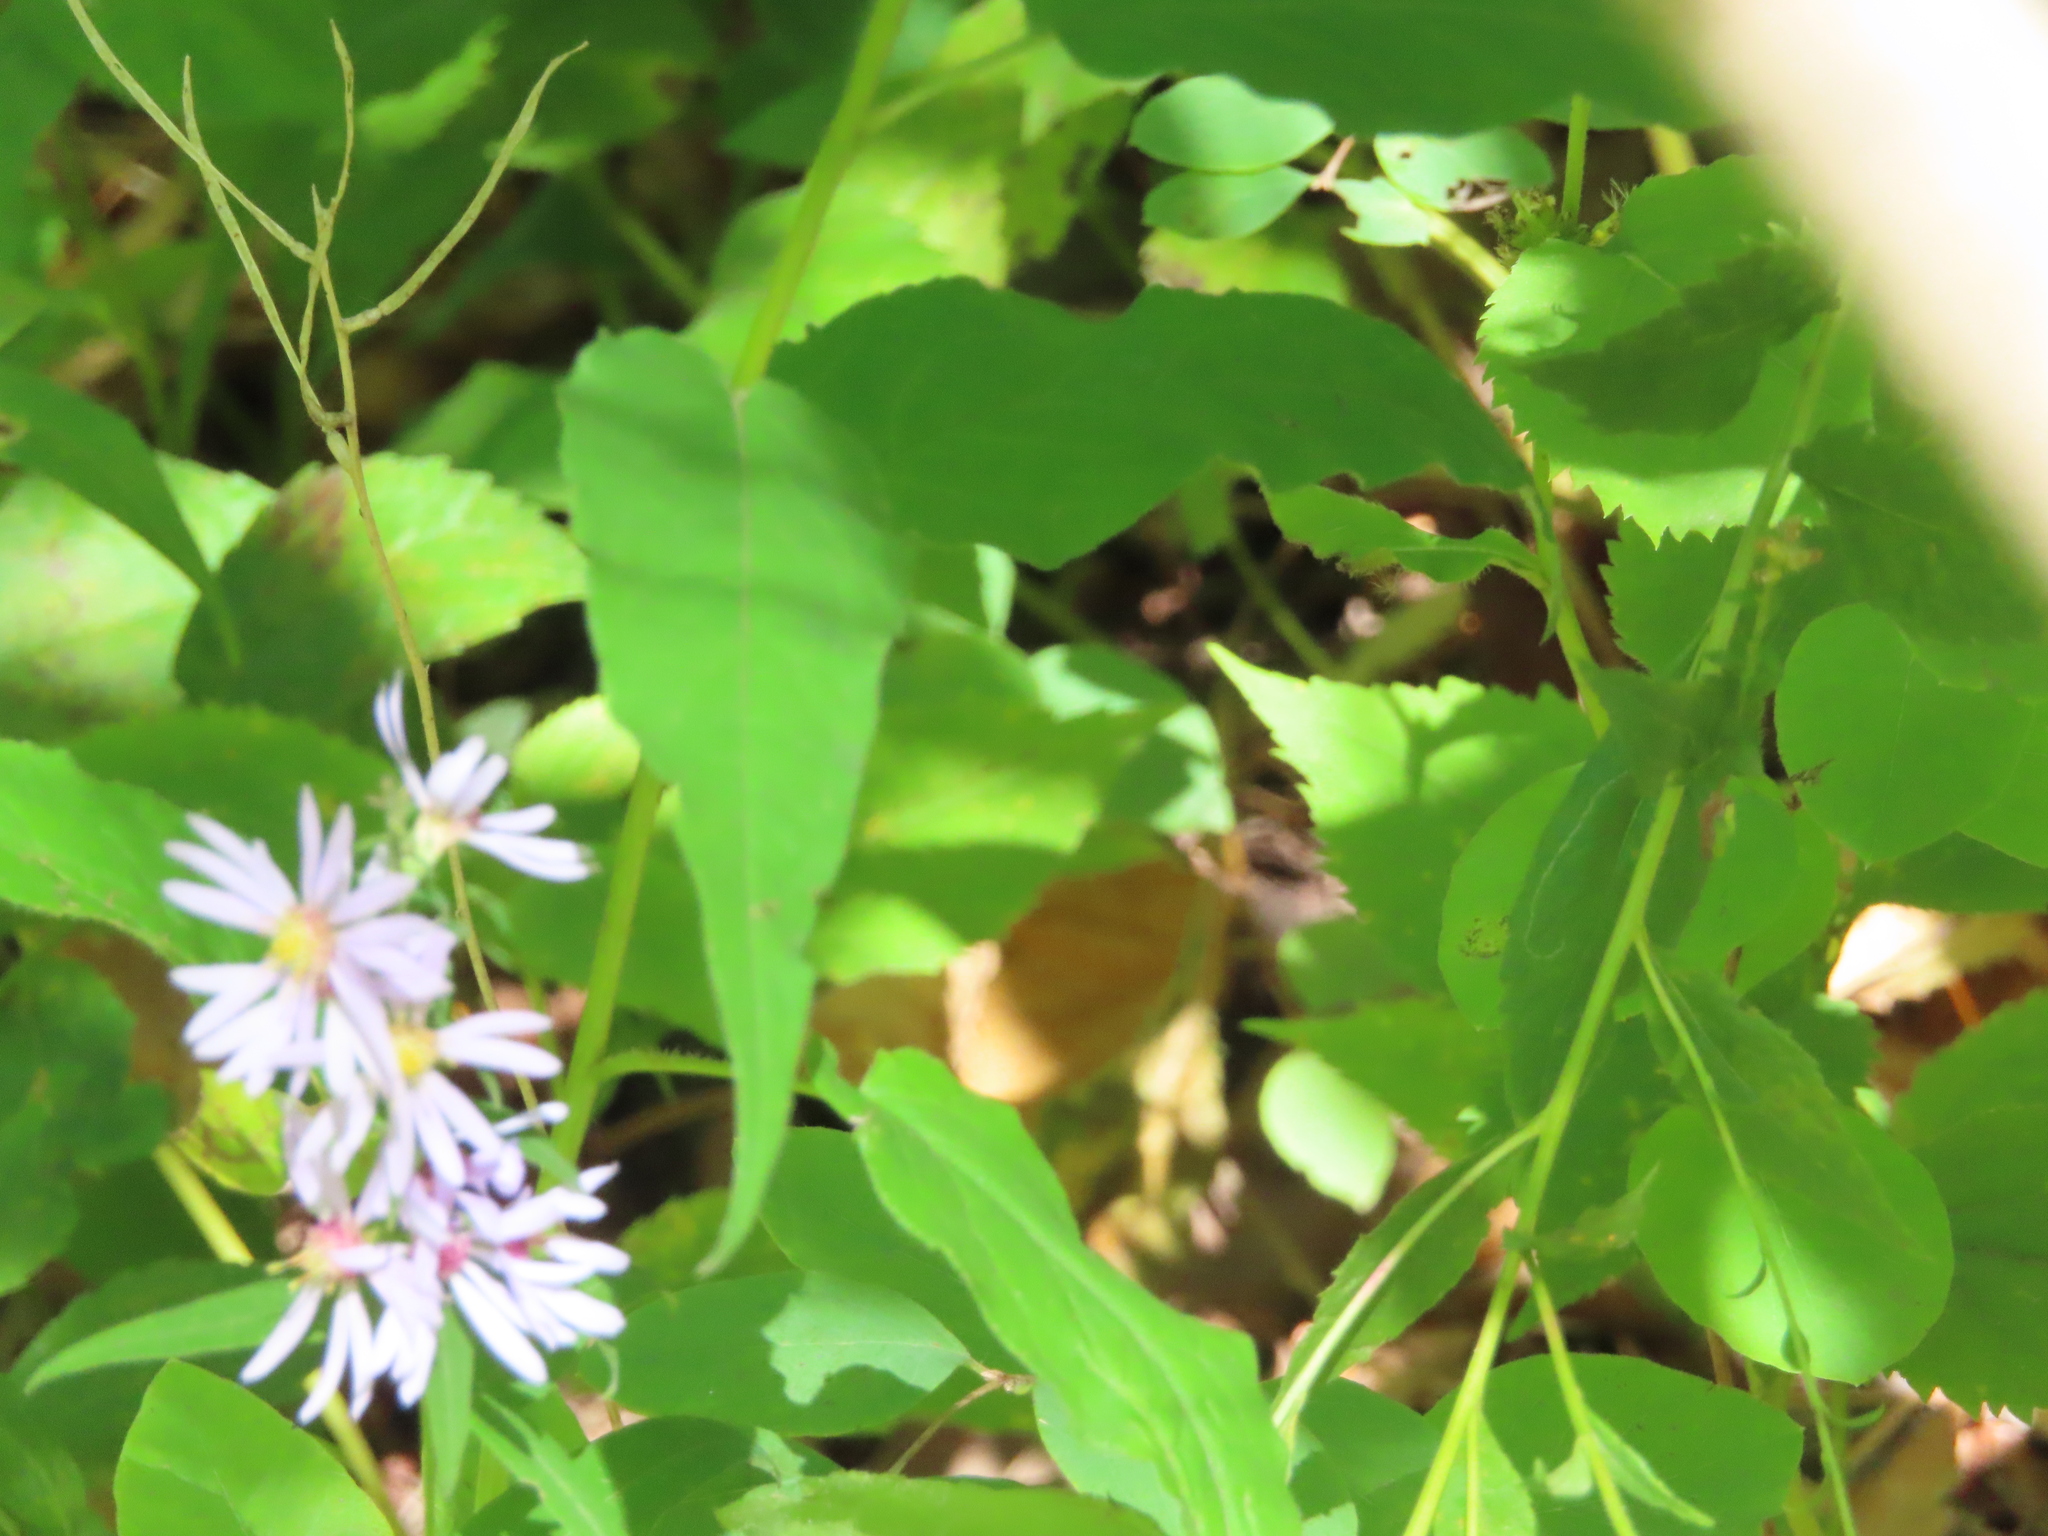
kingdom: Plantae
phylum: Tracheophyta
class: Magnoliopsida
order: Asterales
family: Asteraceae
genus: Symphyotrichum
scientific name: Symphyotrichum shortii
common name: Short's aster
